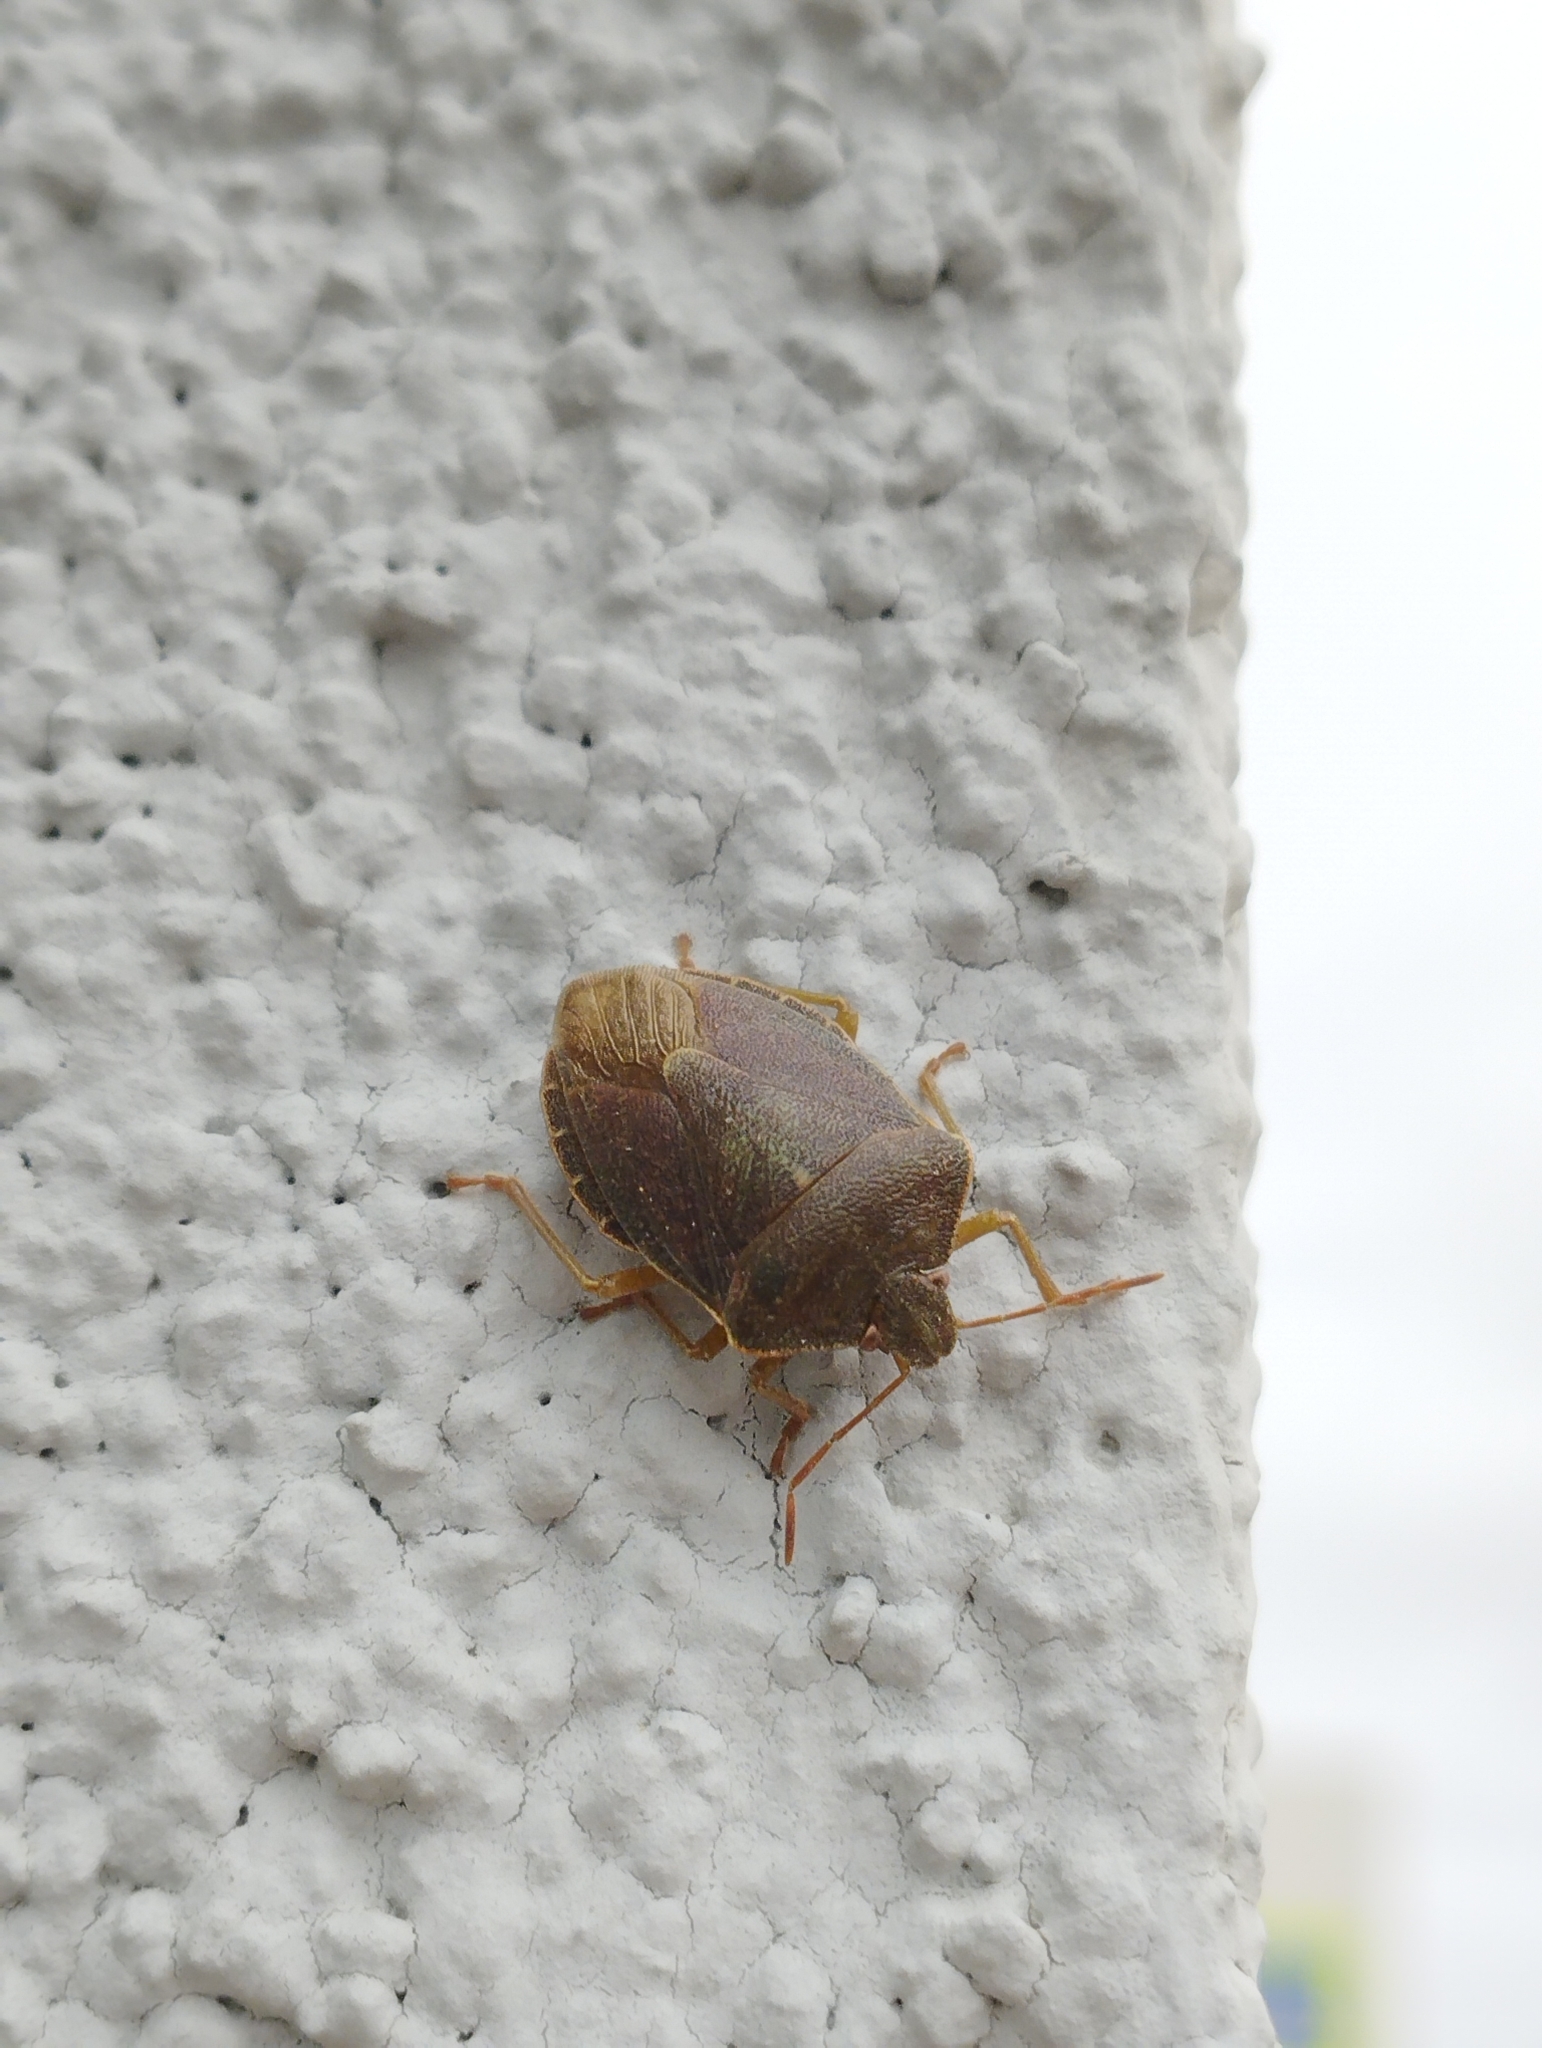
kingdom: Animalia
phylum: Arthropoda
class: Insecta
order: Hemiptera
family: Pentatomidae
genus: Palomena
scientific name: Palomena prasina
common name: Green shieldbug
